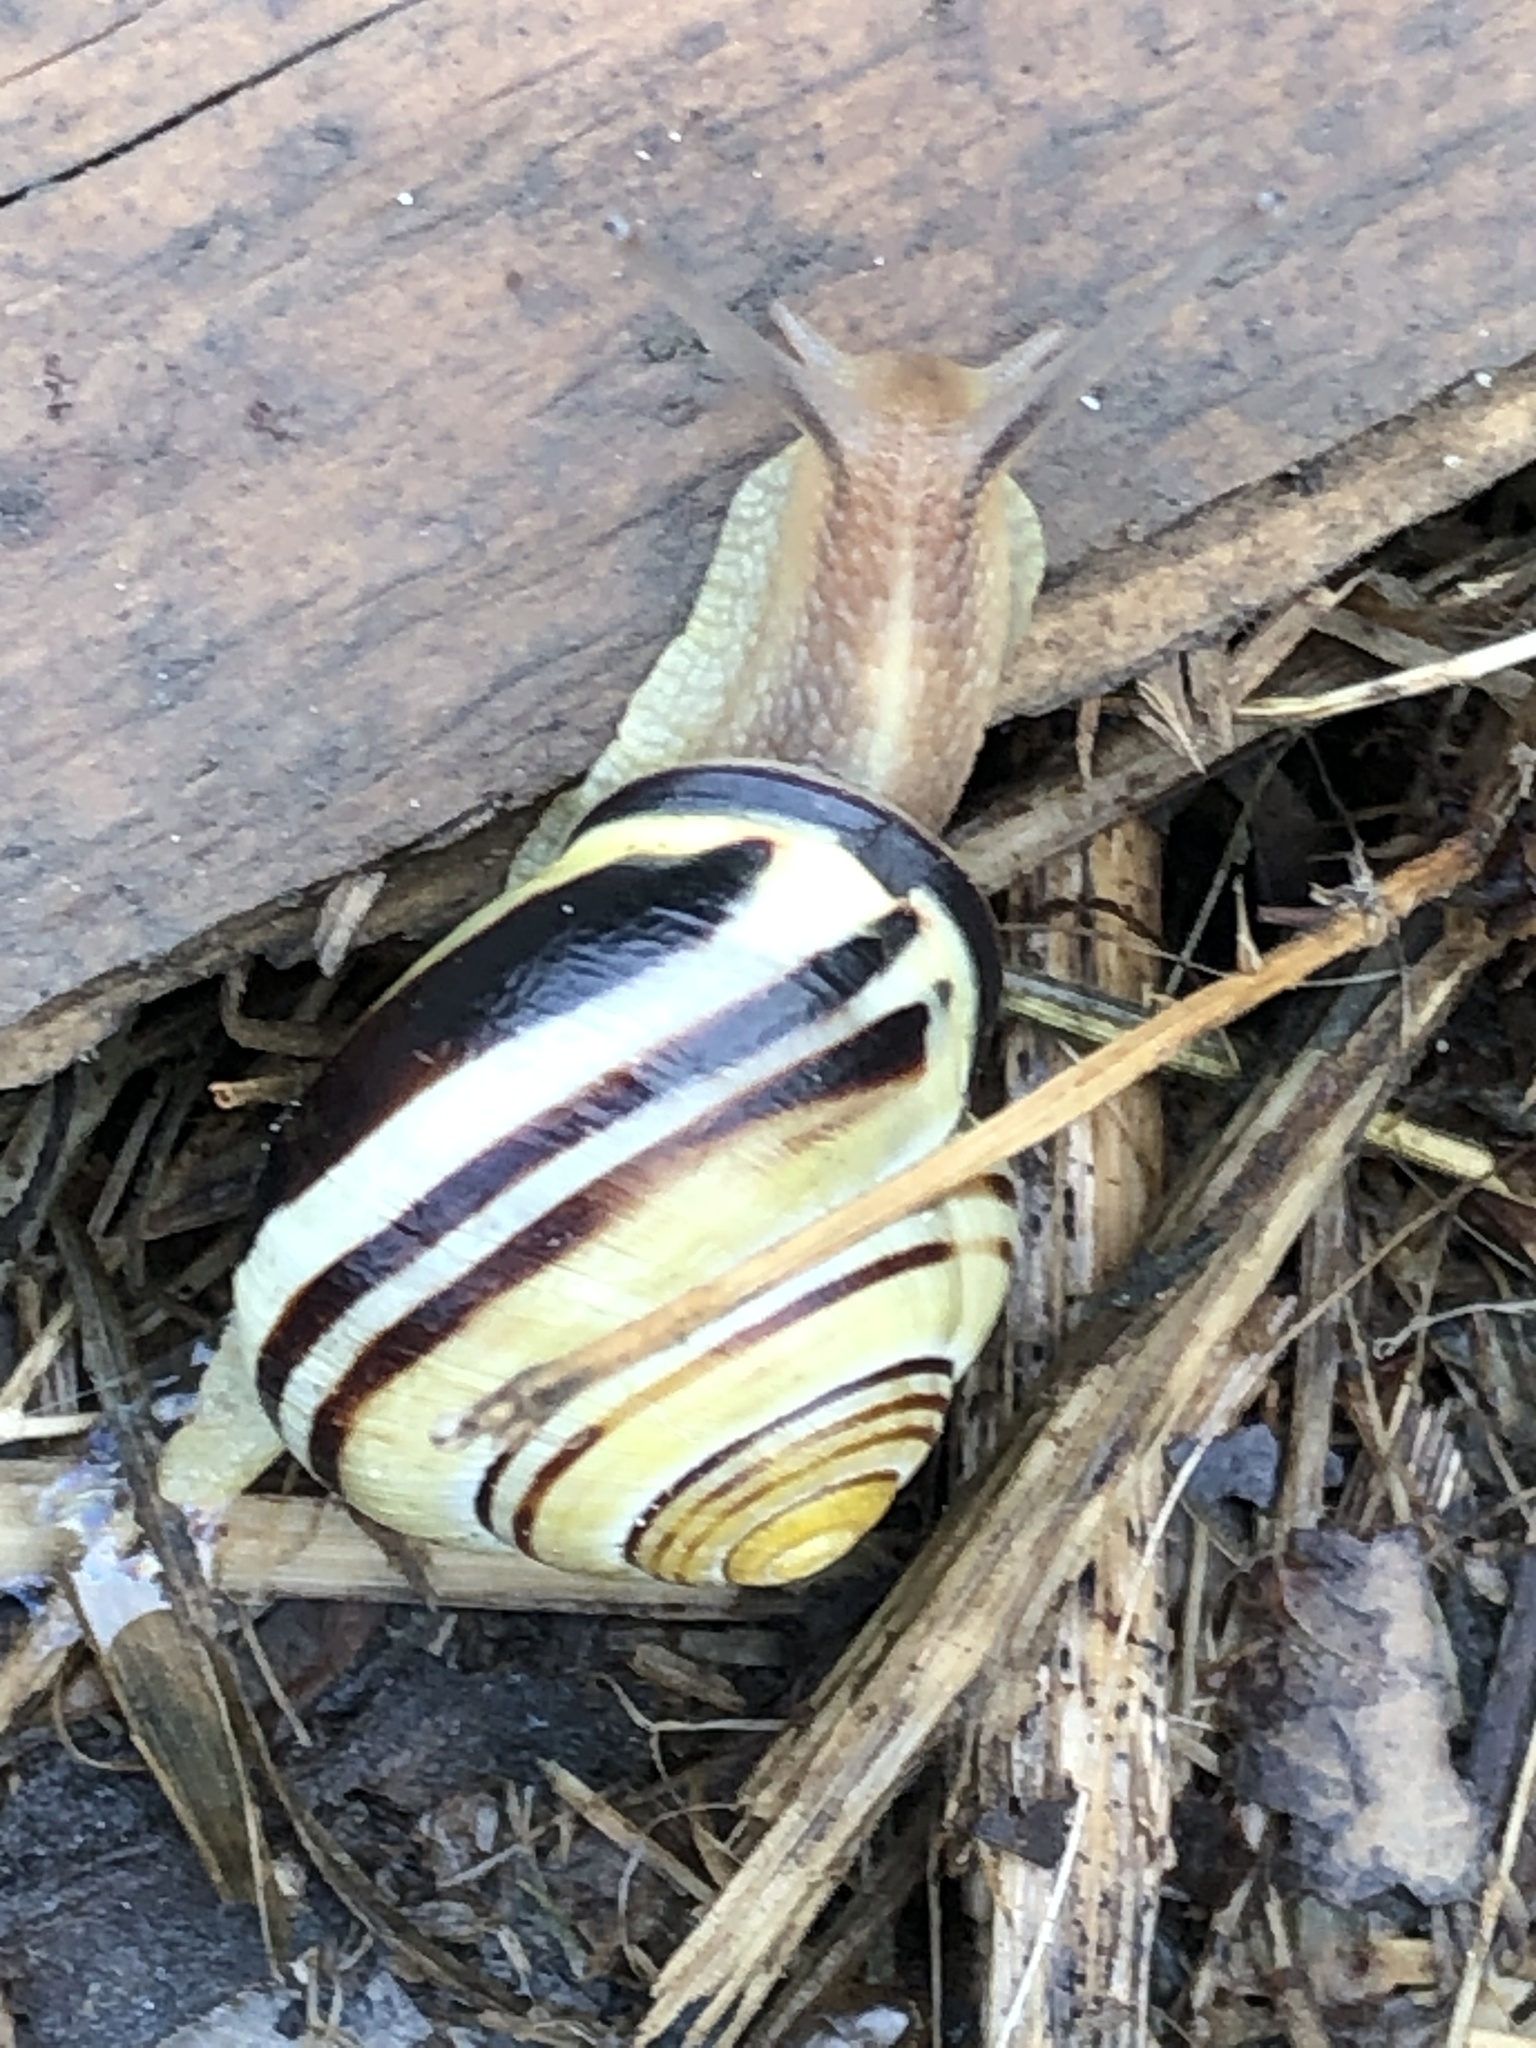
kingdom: Animalia
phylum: Mollusca
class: Gastropoda
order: Stylommatophora
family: Helicidae
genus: Cepaea
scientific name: Cepaea nemoralis
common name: Grovesnail
